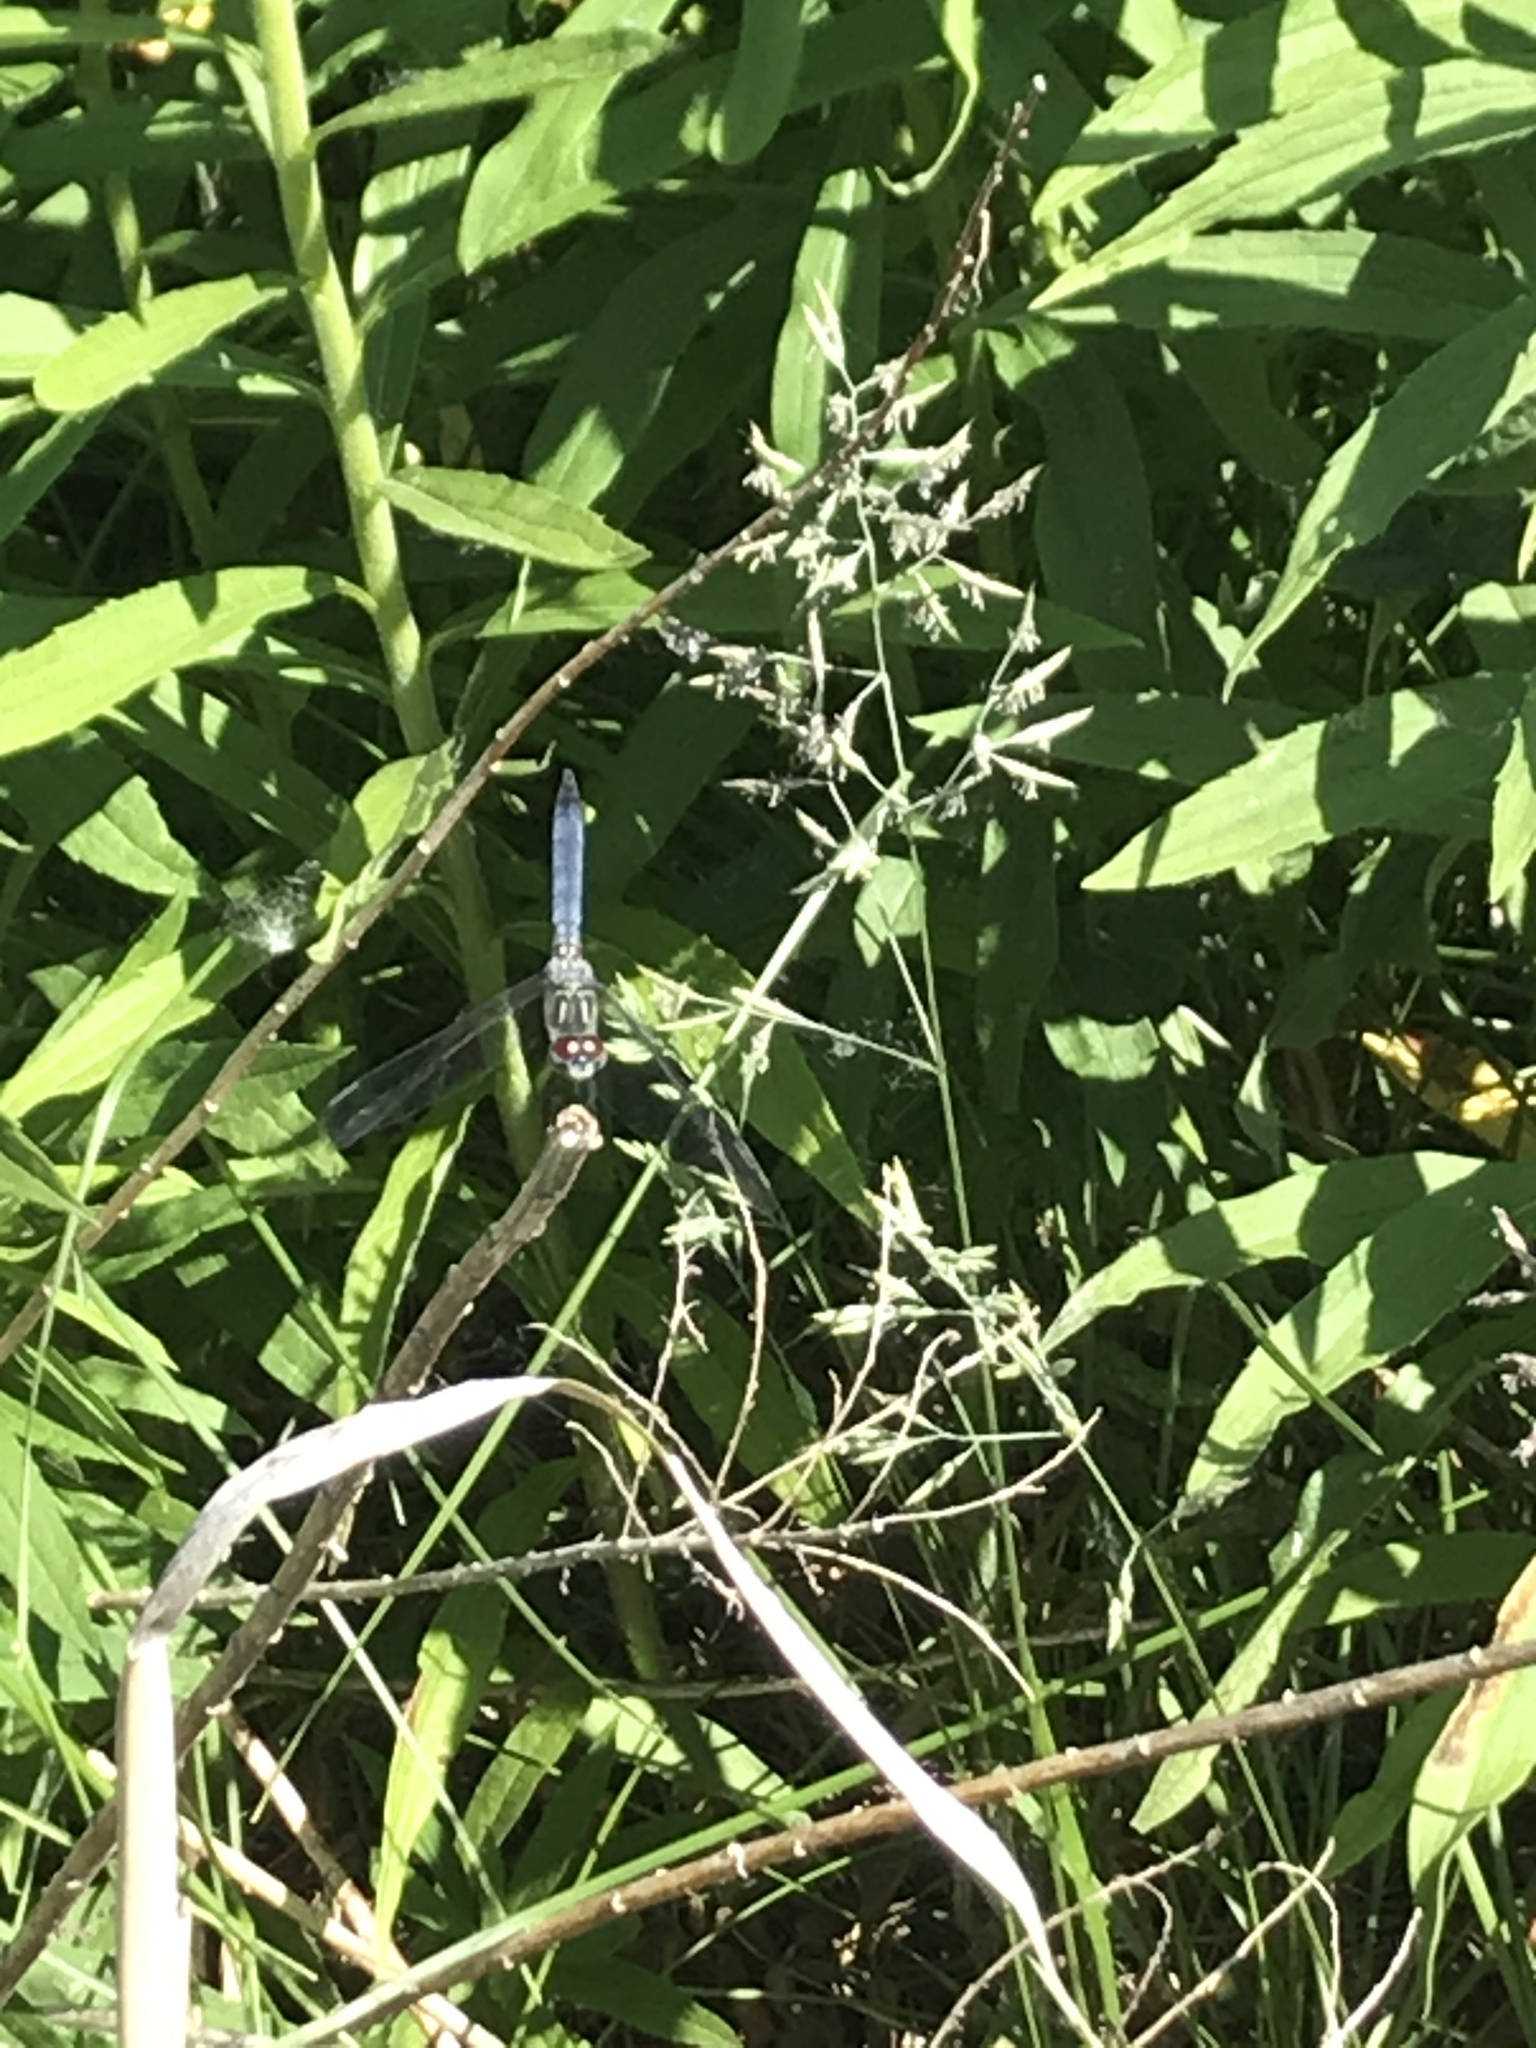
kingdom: Animalia
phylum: Arthropoda
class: Insecta
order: Odonata
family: Libellulidae
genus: Pachydiplax
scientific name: Pachydiplax longipennis
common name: Blue dasher
